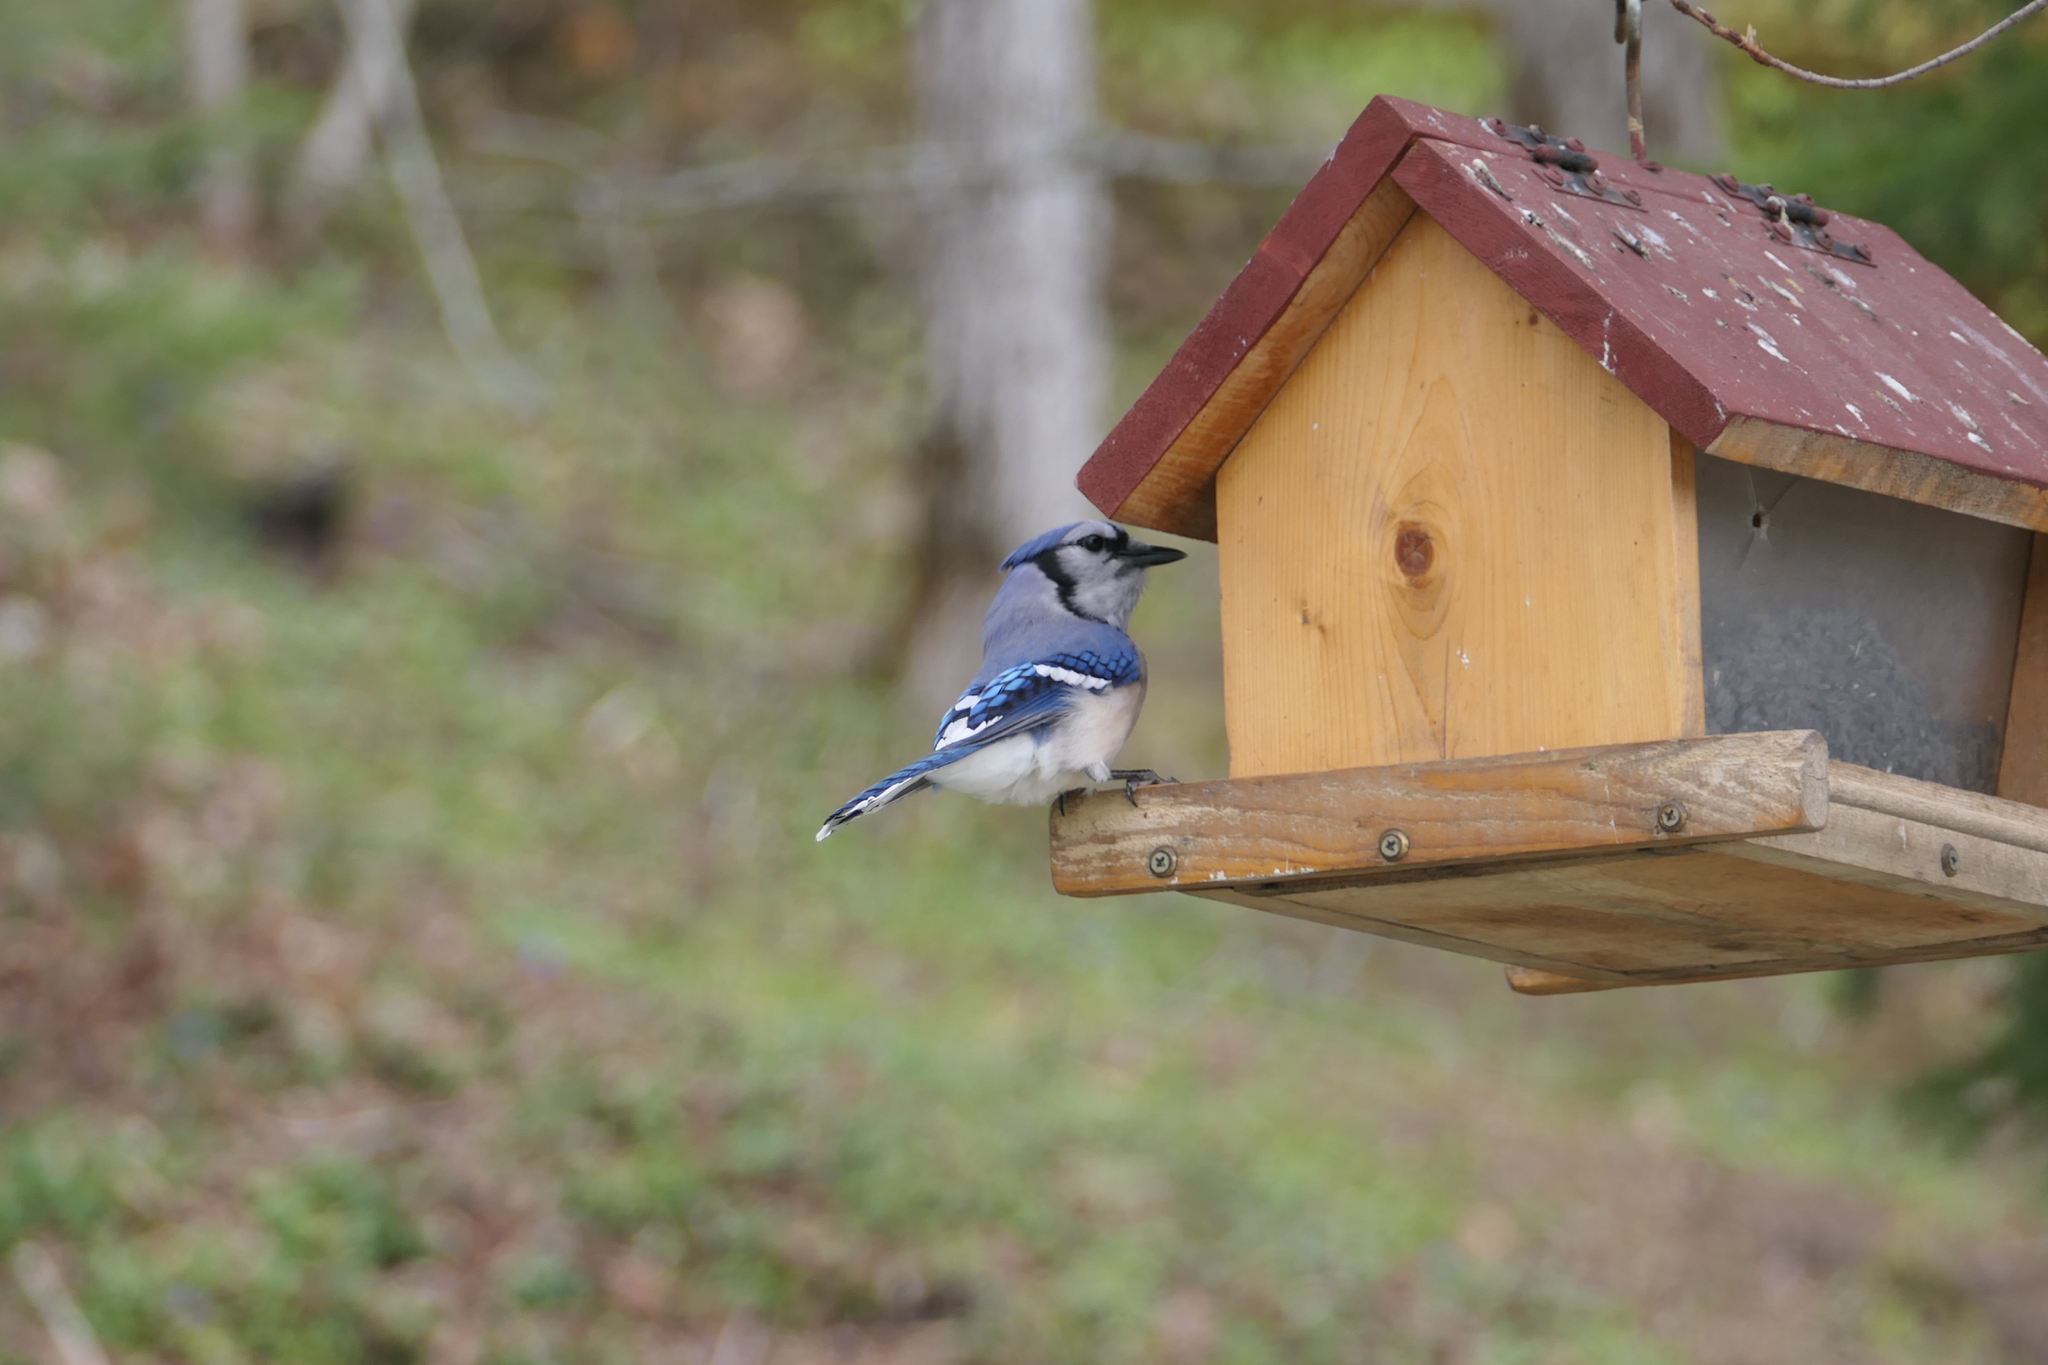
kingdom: Animalia
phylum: Chordata
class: Aves
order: Passeriformes
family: Corvidae
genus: Cyanocitta
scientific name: Cyanocitta cristata
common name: Blue jay
